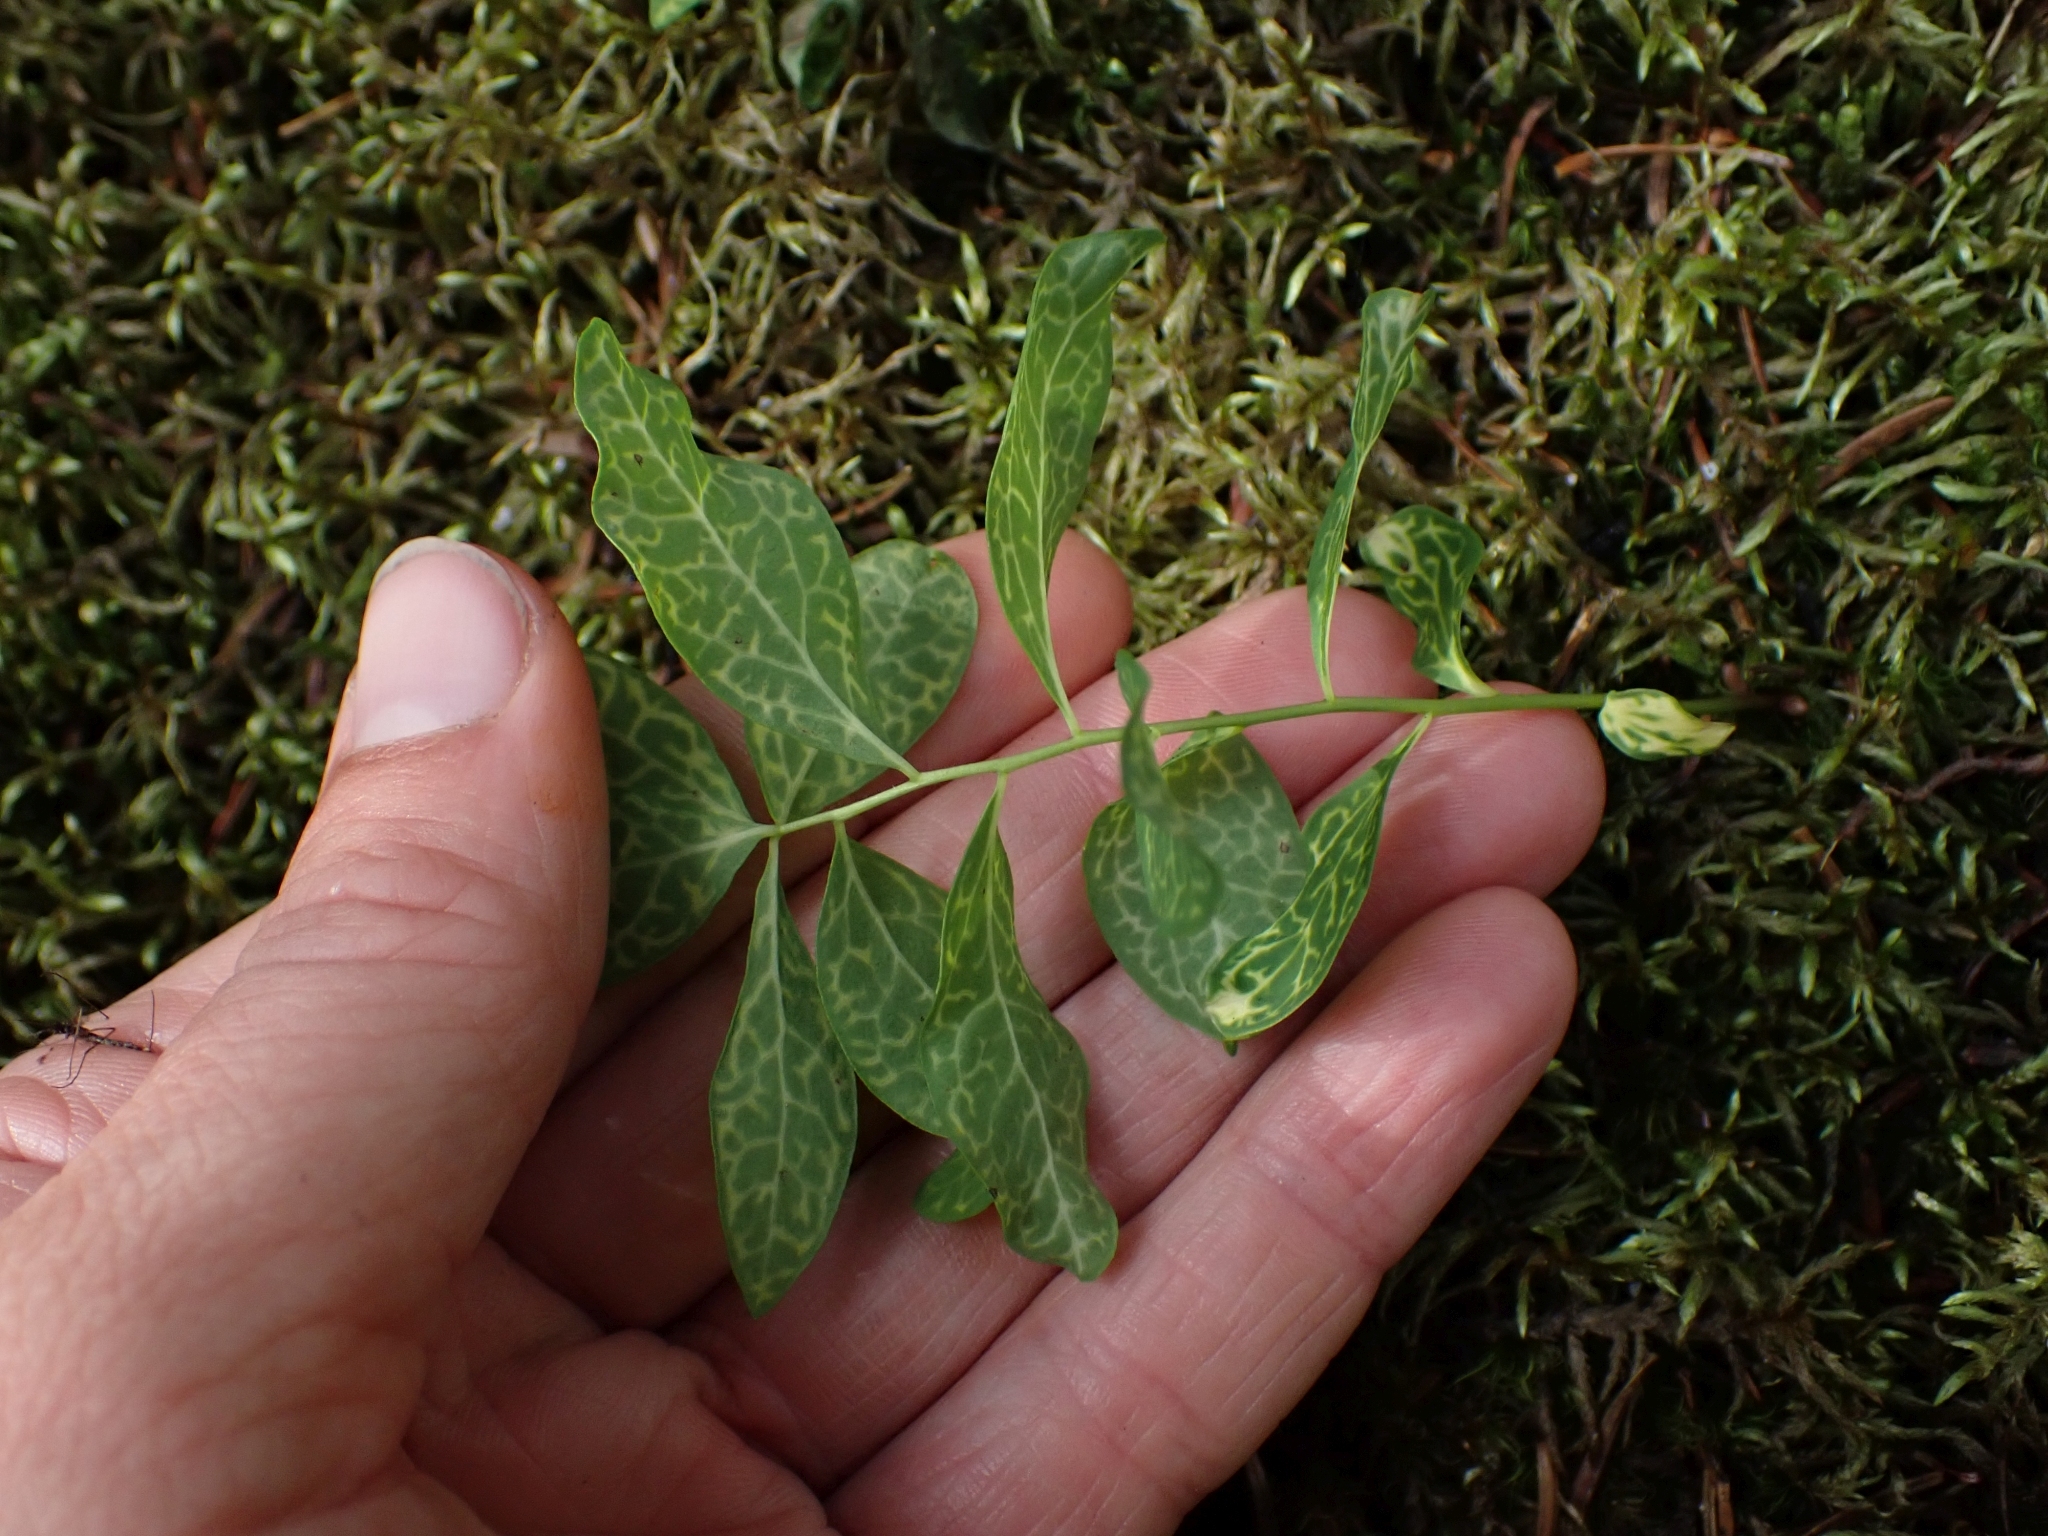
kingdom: Plantae
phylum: Tracheophyta
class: Magnoliopsida
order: Santalales
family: Comandraceae
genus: Geocaulon
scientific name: Geocaulon lividum
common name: Earthberry
